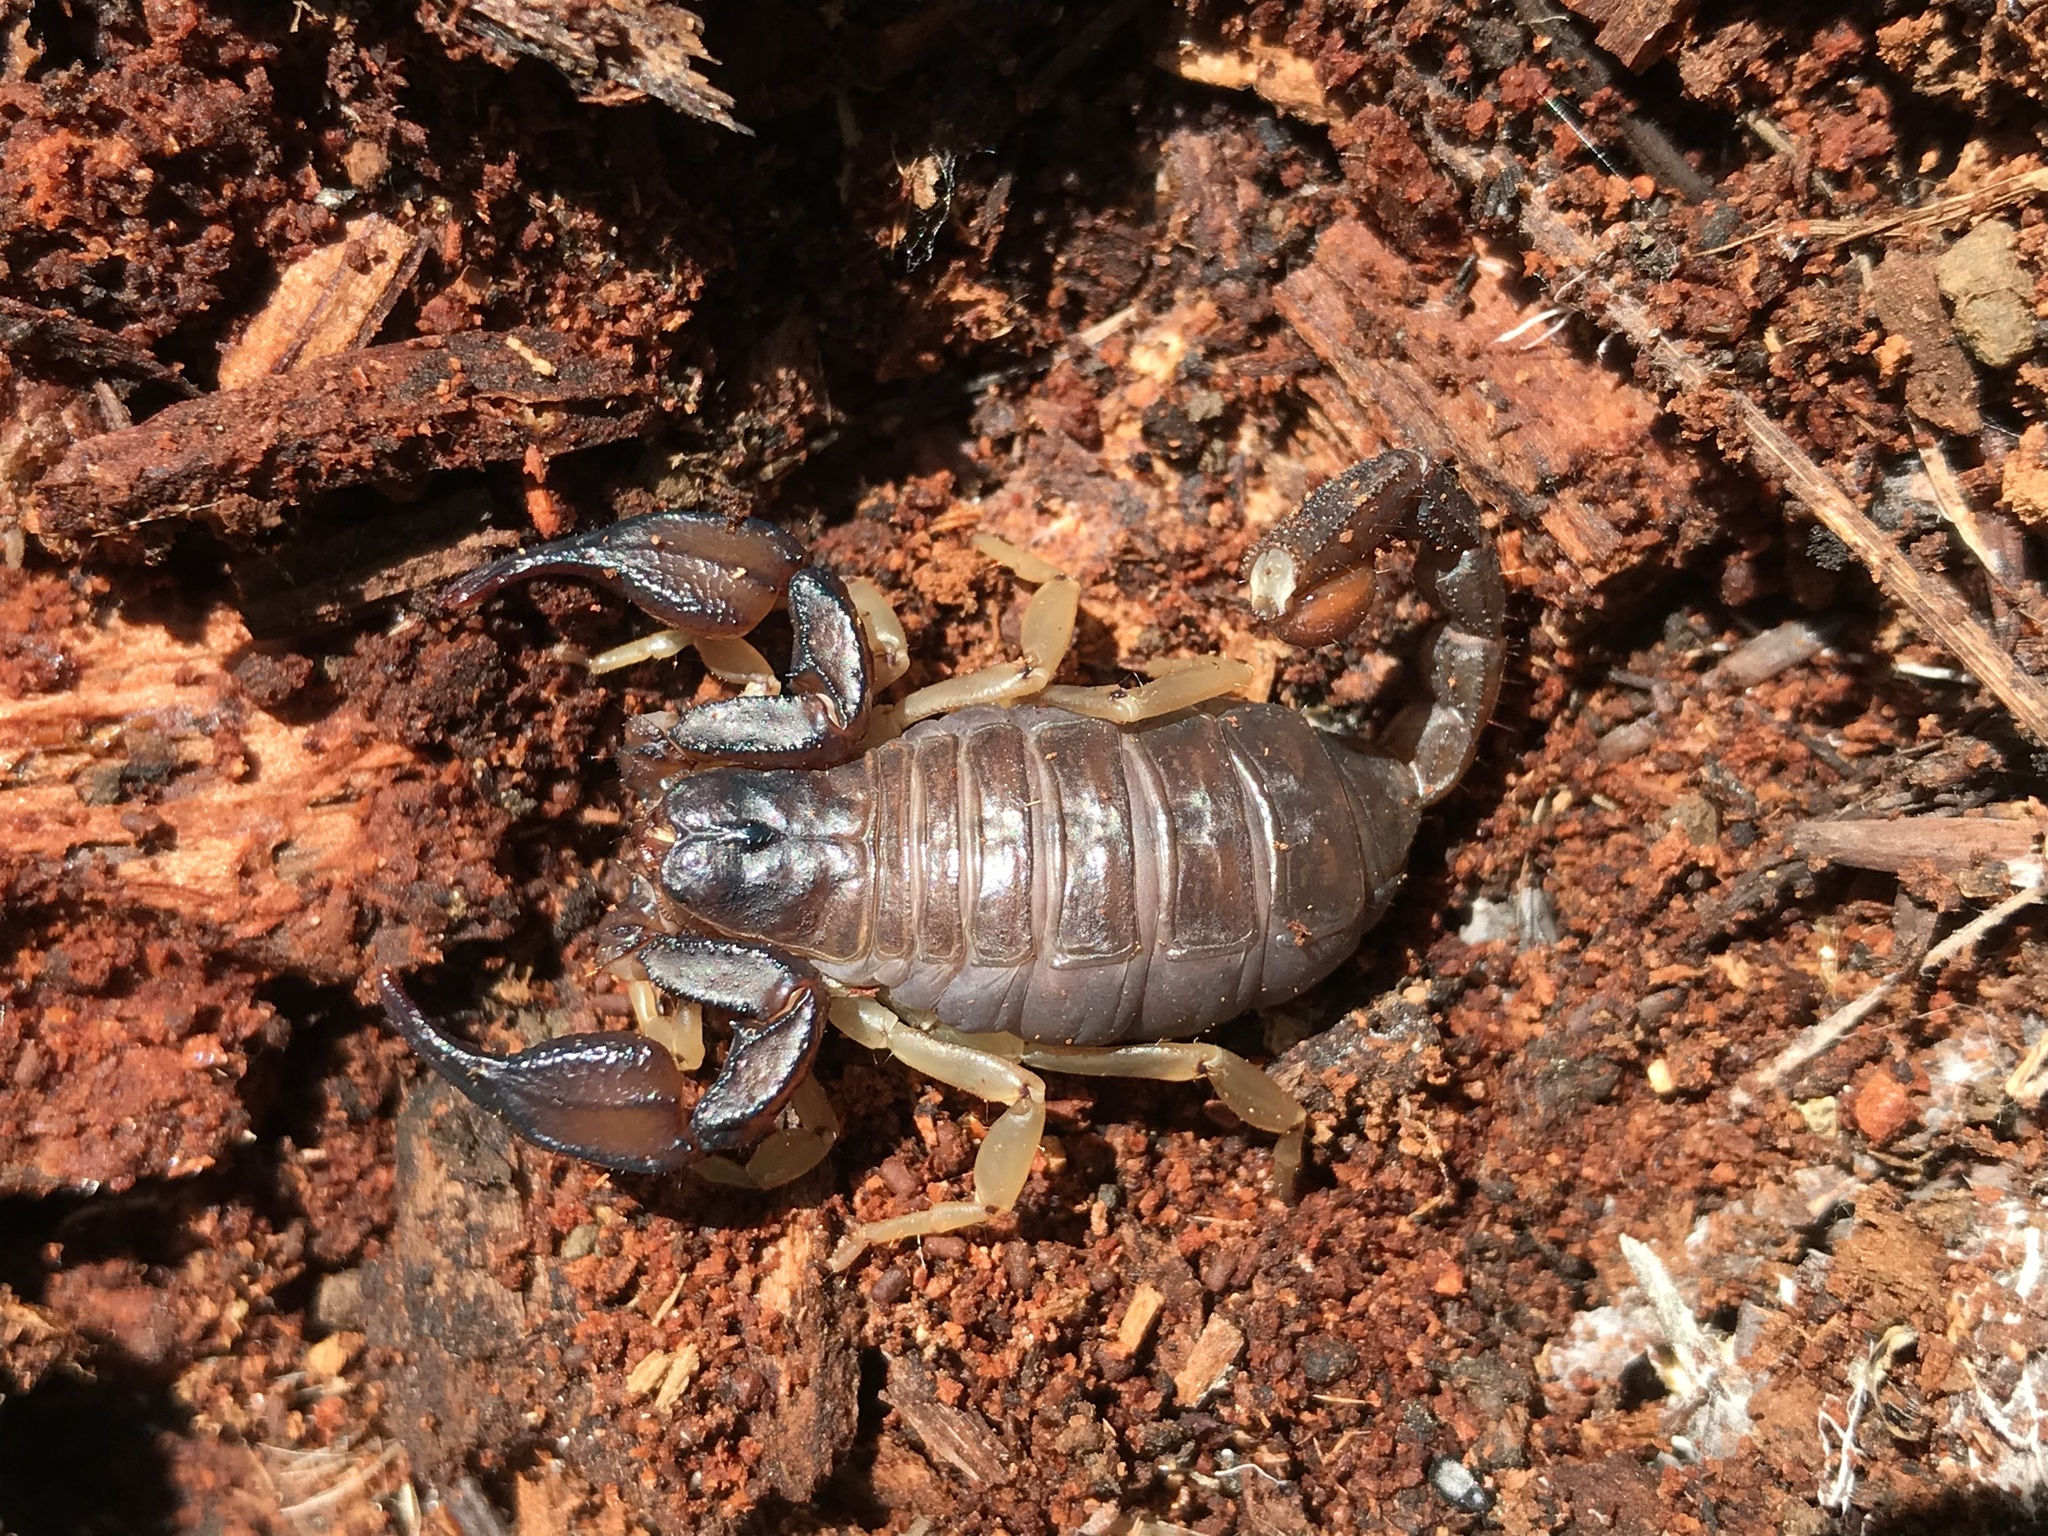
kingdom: Animalia
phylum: Arthropoda
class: Arachnida
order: Scorpiones
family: Chactidae
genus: Uroctonus
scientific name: Uroctonus mordax
